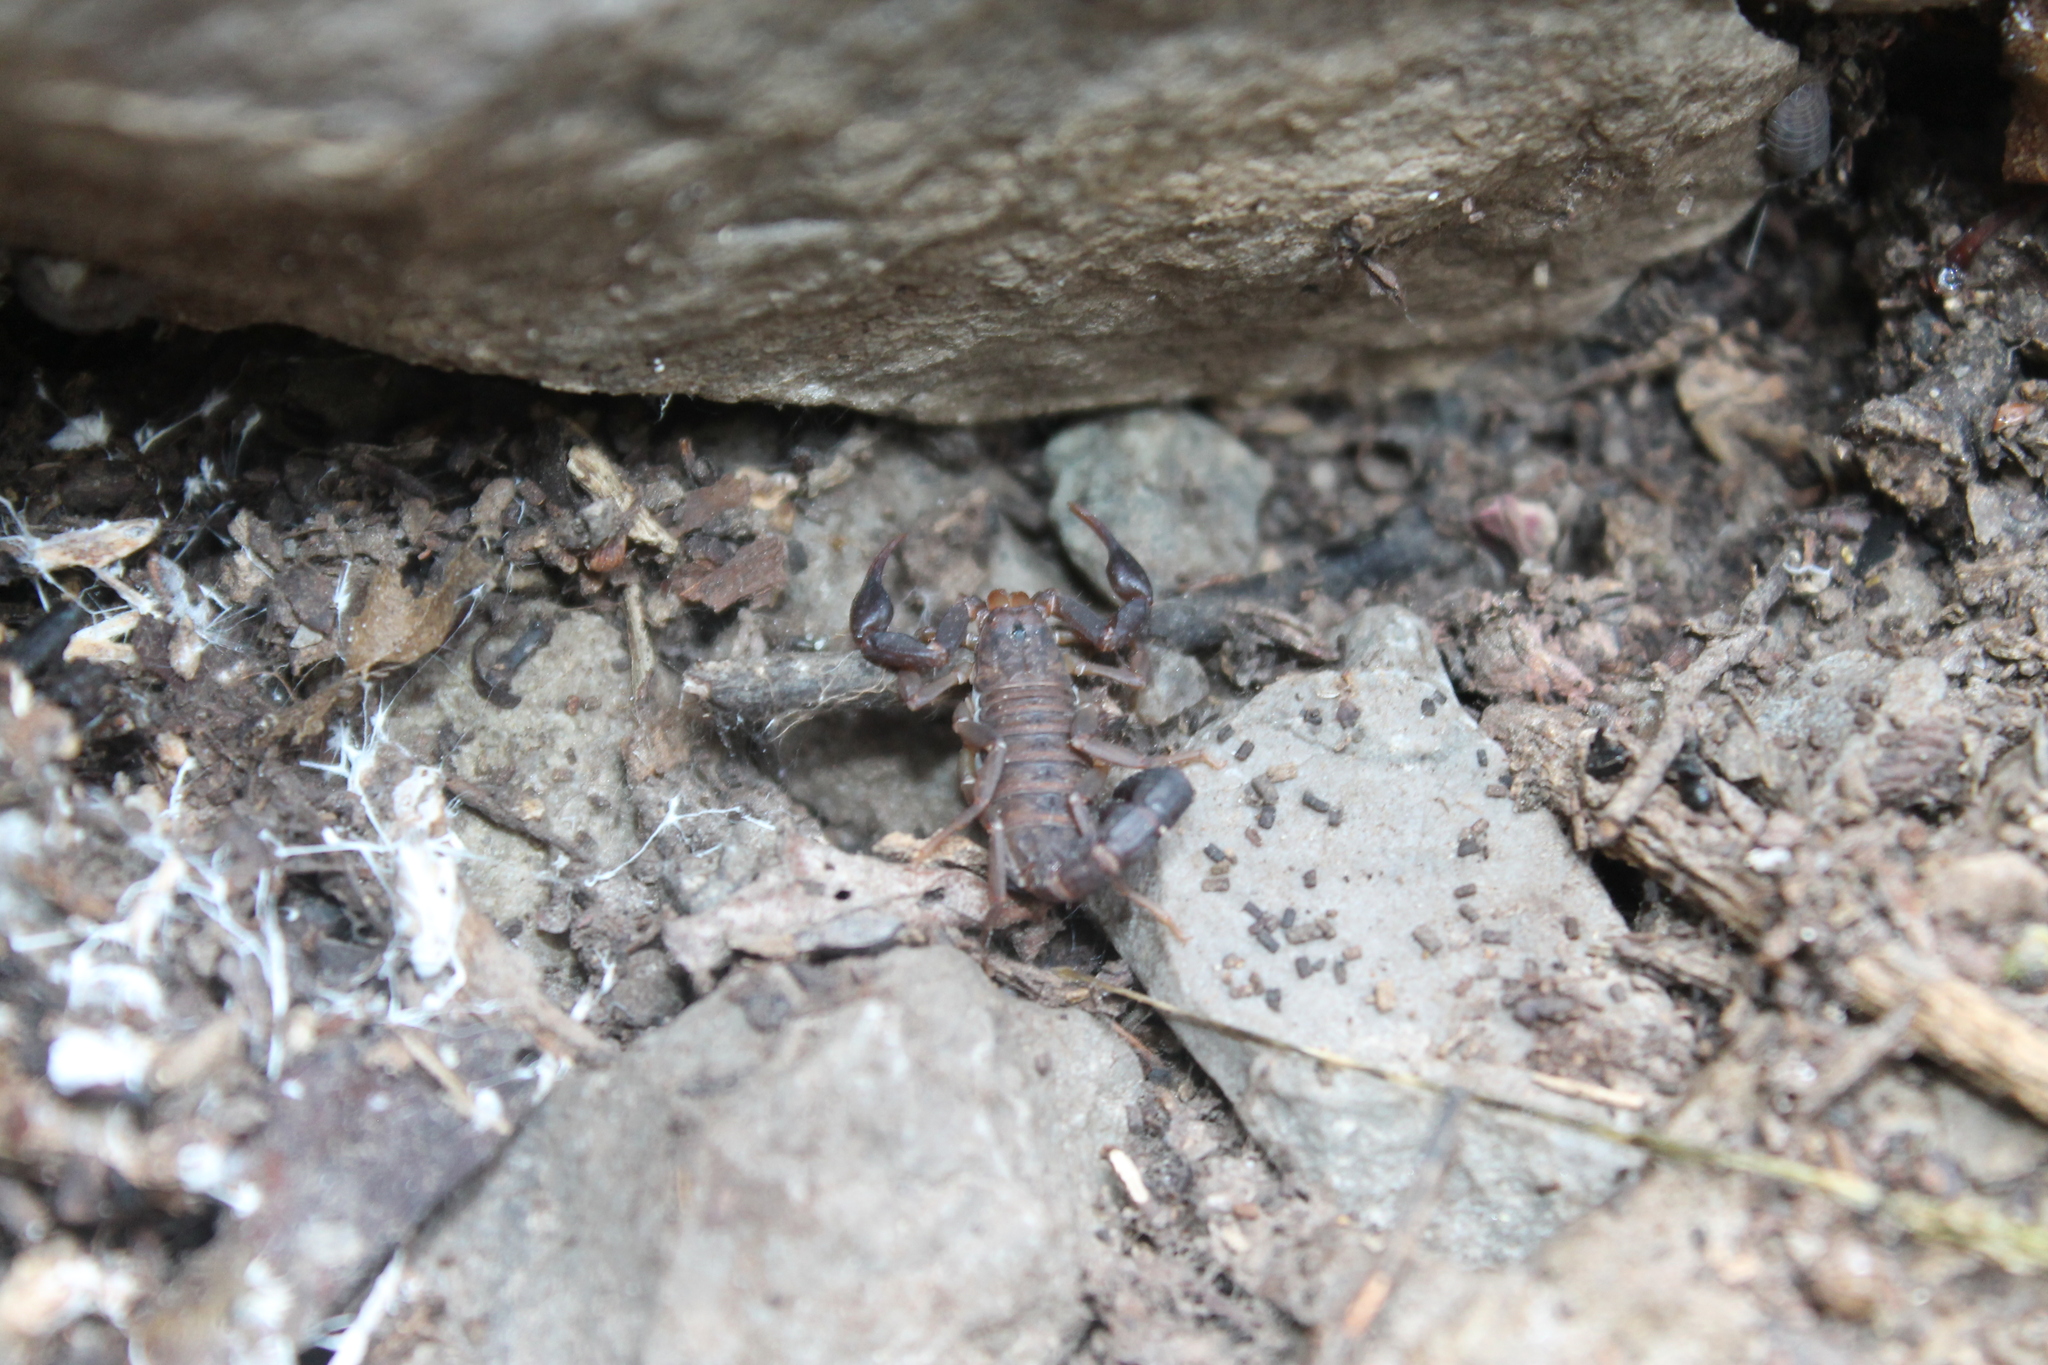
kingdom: Animalia
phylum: Arthropoda
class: Arachnida
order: Scorpiones
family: Vaejovidae
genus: Vaejovis
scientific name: Vaejovis carolinianus
